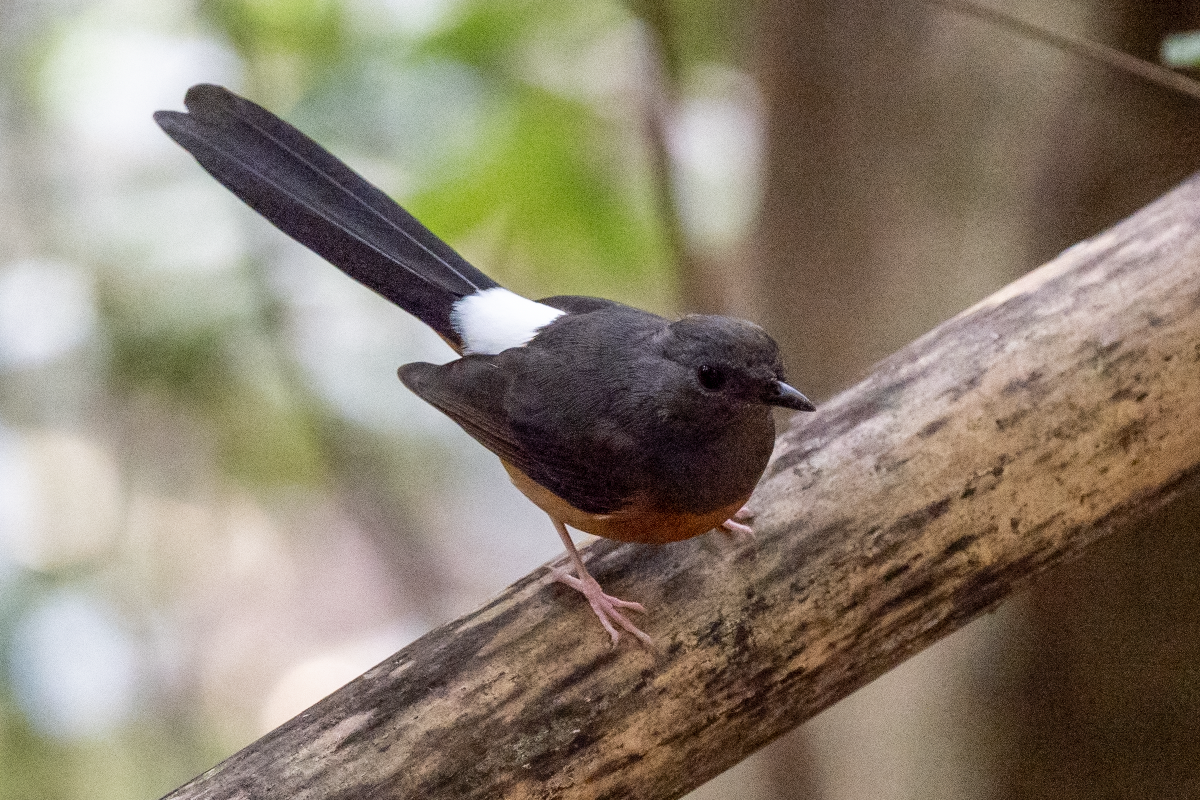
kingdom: Animalia
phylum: Chordata
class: Aves
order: Passeriformes
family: Muscicapidae
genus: Copsychus
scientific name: Copsychus malabaricus
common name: White-rumped shama
